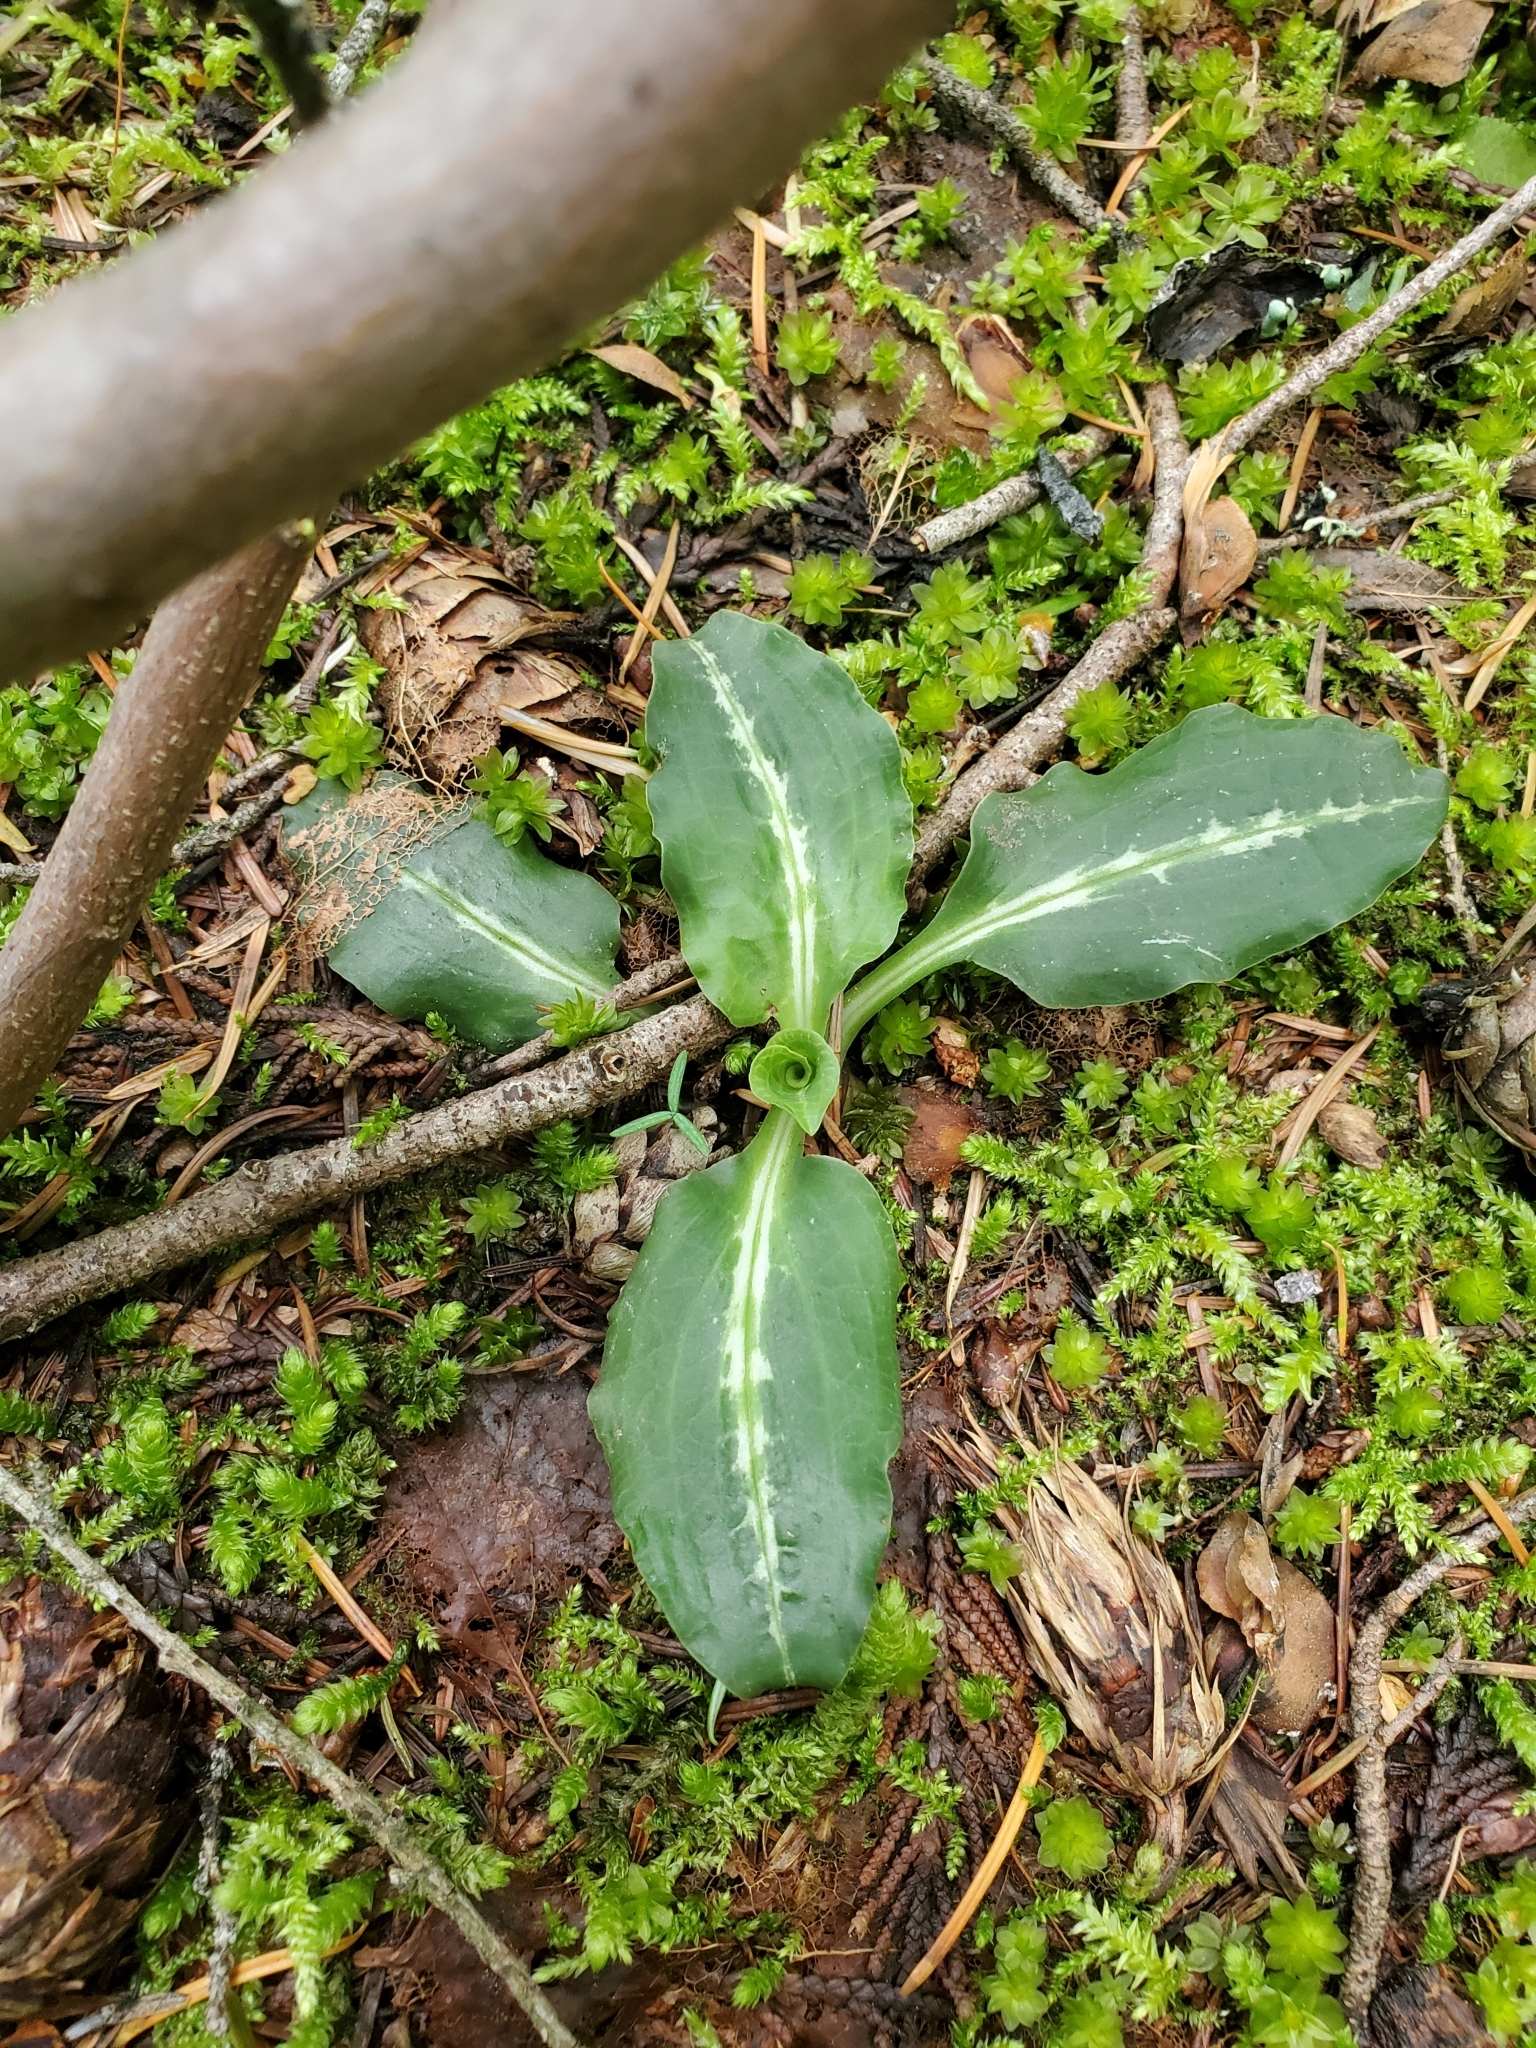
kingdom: Plantae
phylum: Tracheophyta
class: Liliopsida
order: Asparagales
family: Orchidaceae
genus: Goodyera
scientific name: Goodyera oblongifolia
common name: Giant rattlesnake-plantain
